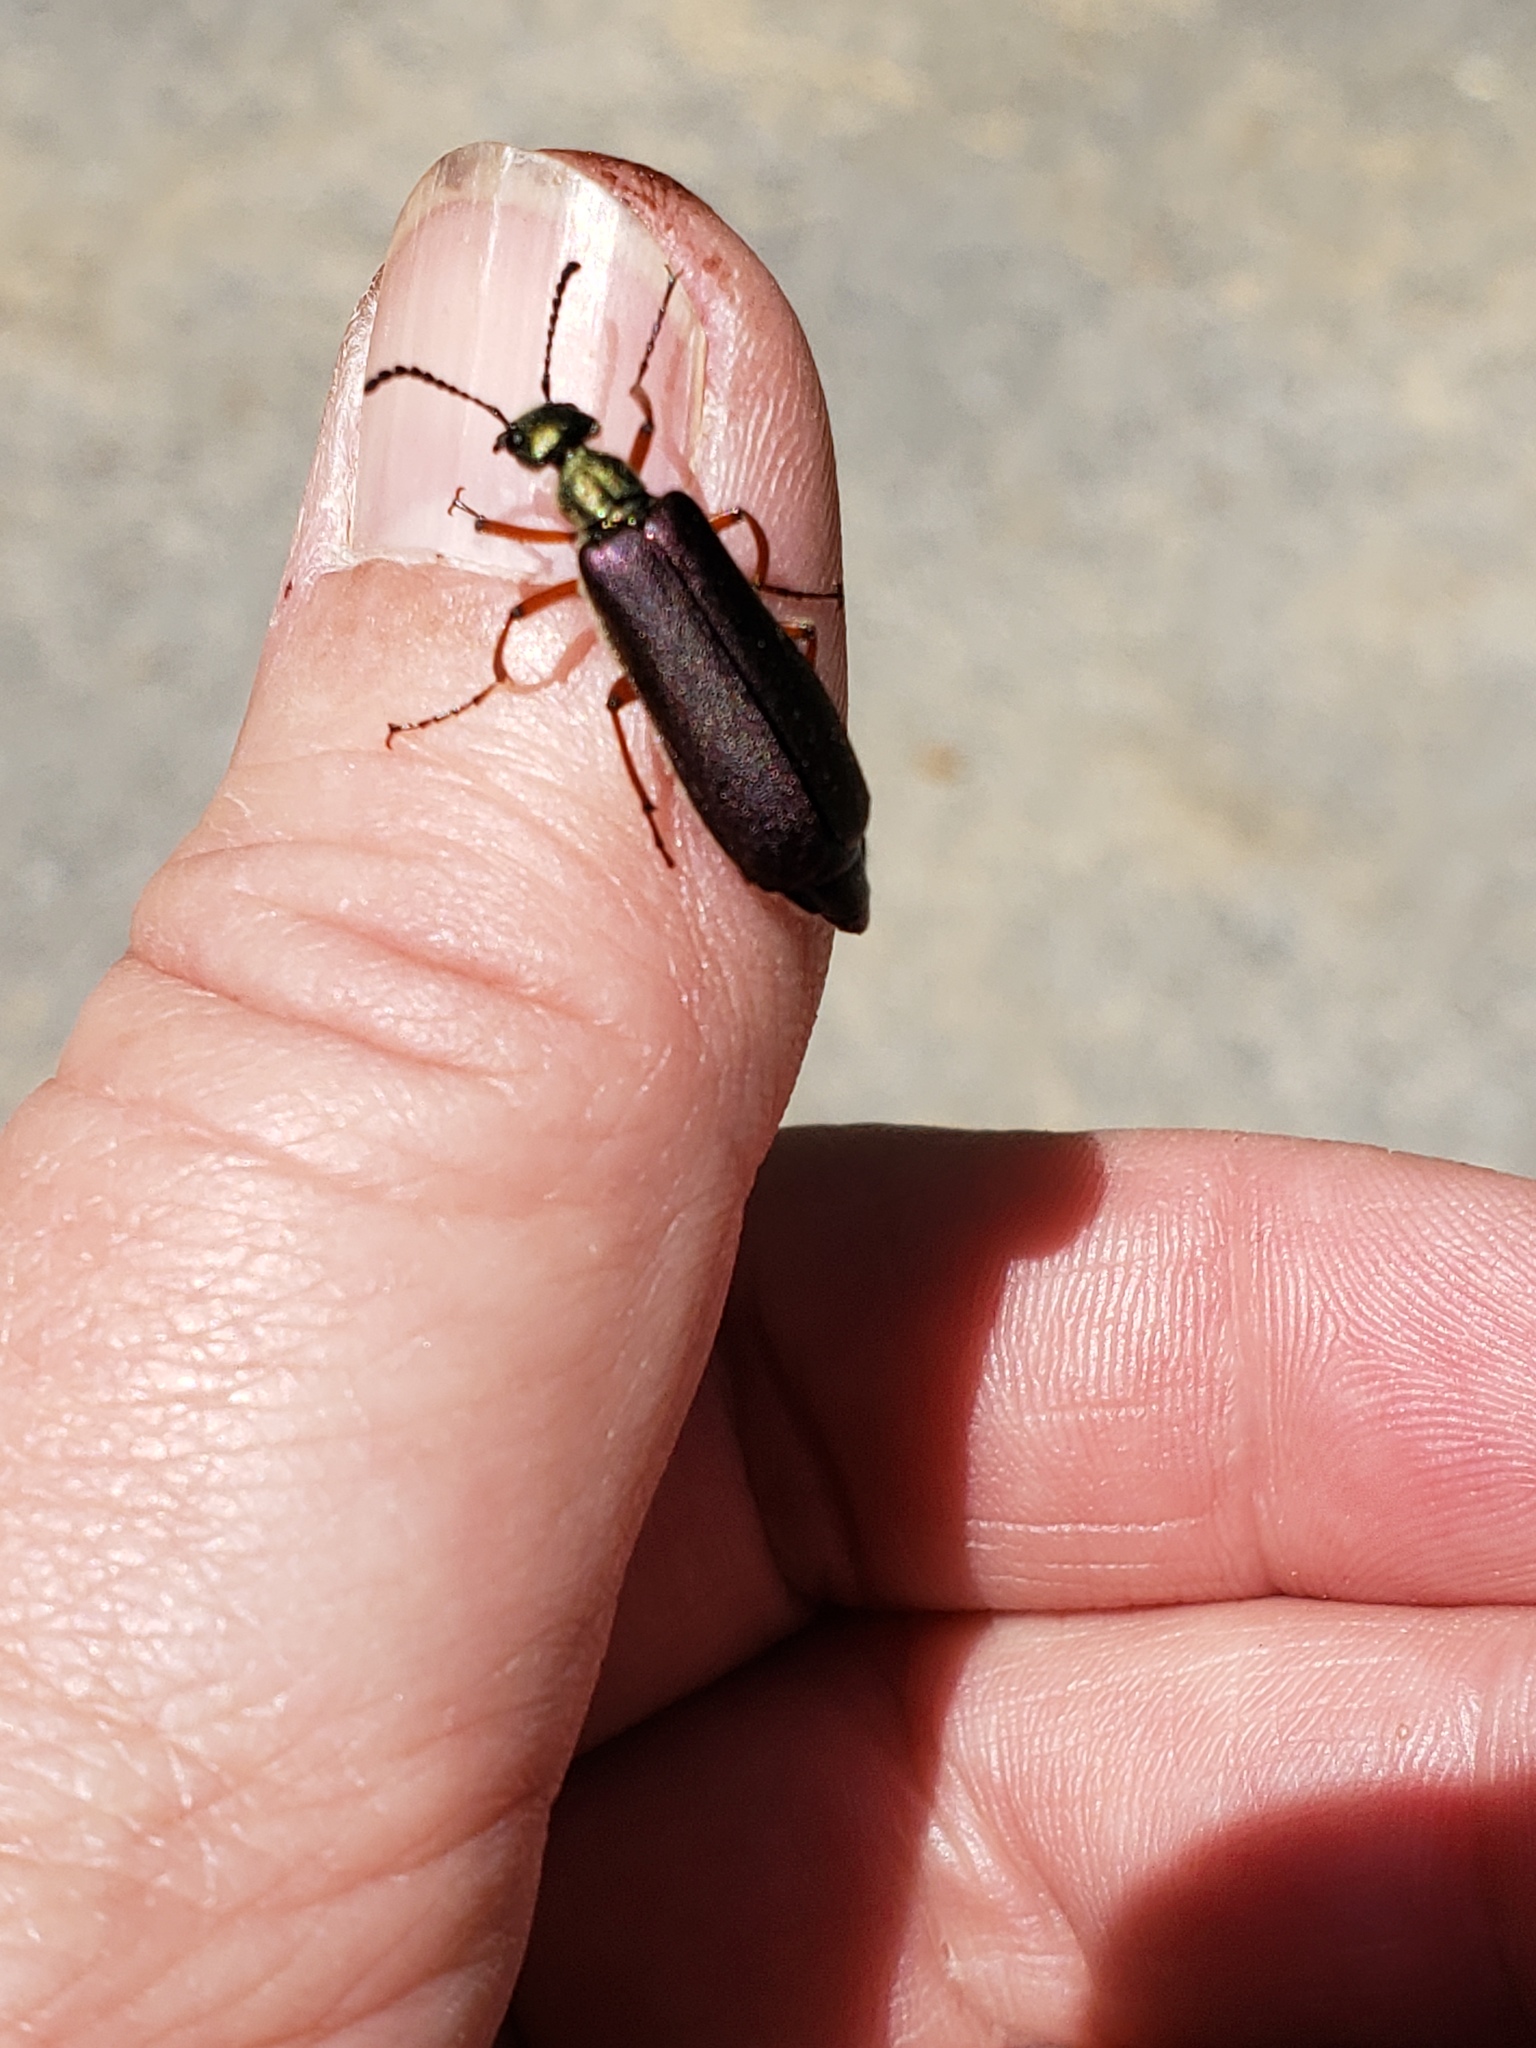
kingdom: Animalia
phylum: Arthropoda
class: Insecta
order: Coleoptera
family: Meloidae
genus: Lytta
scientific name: Lytta aenea
